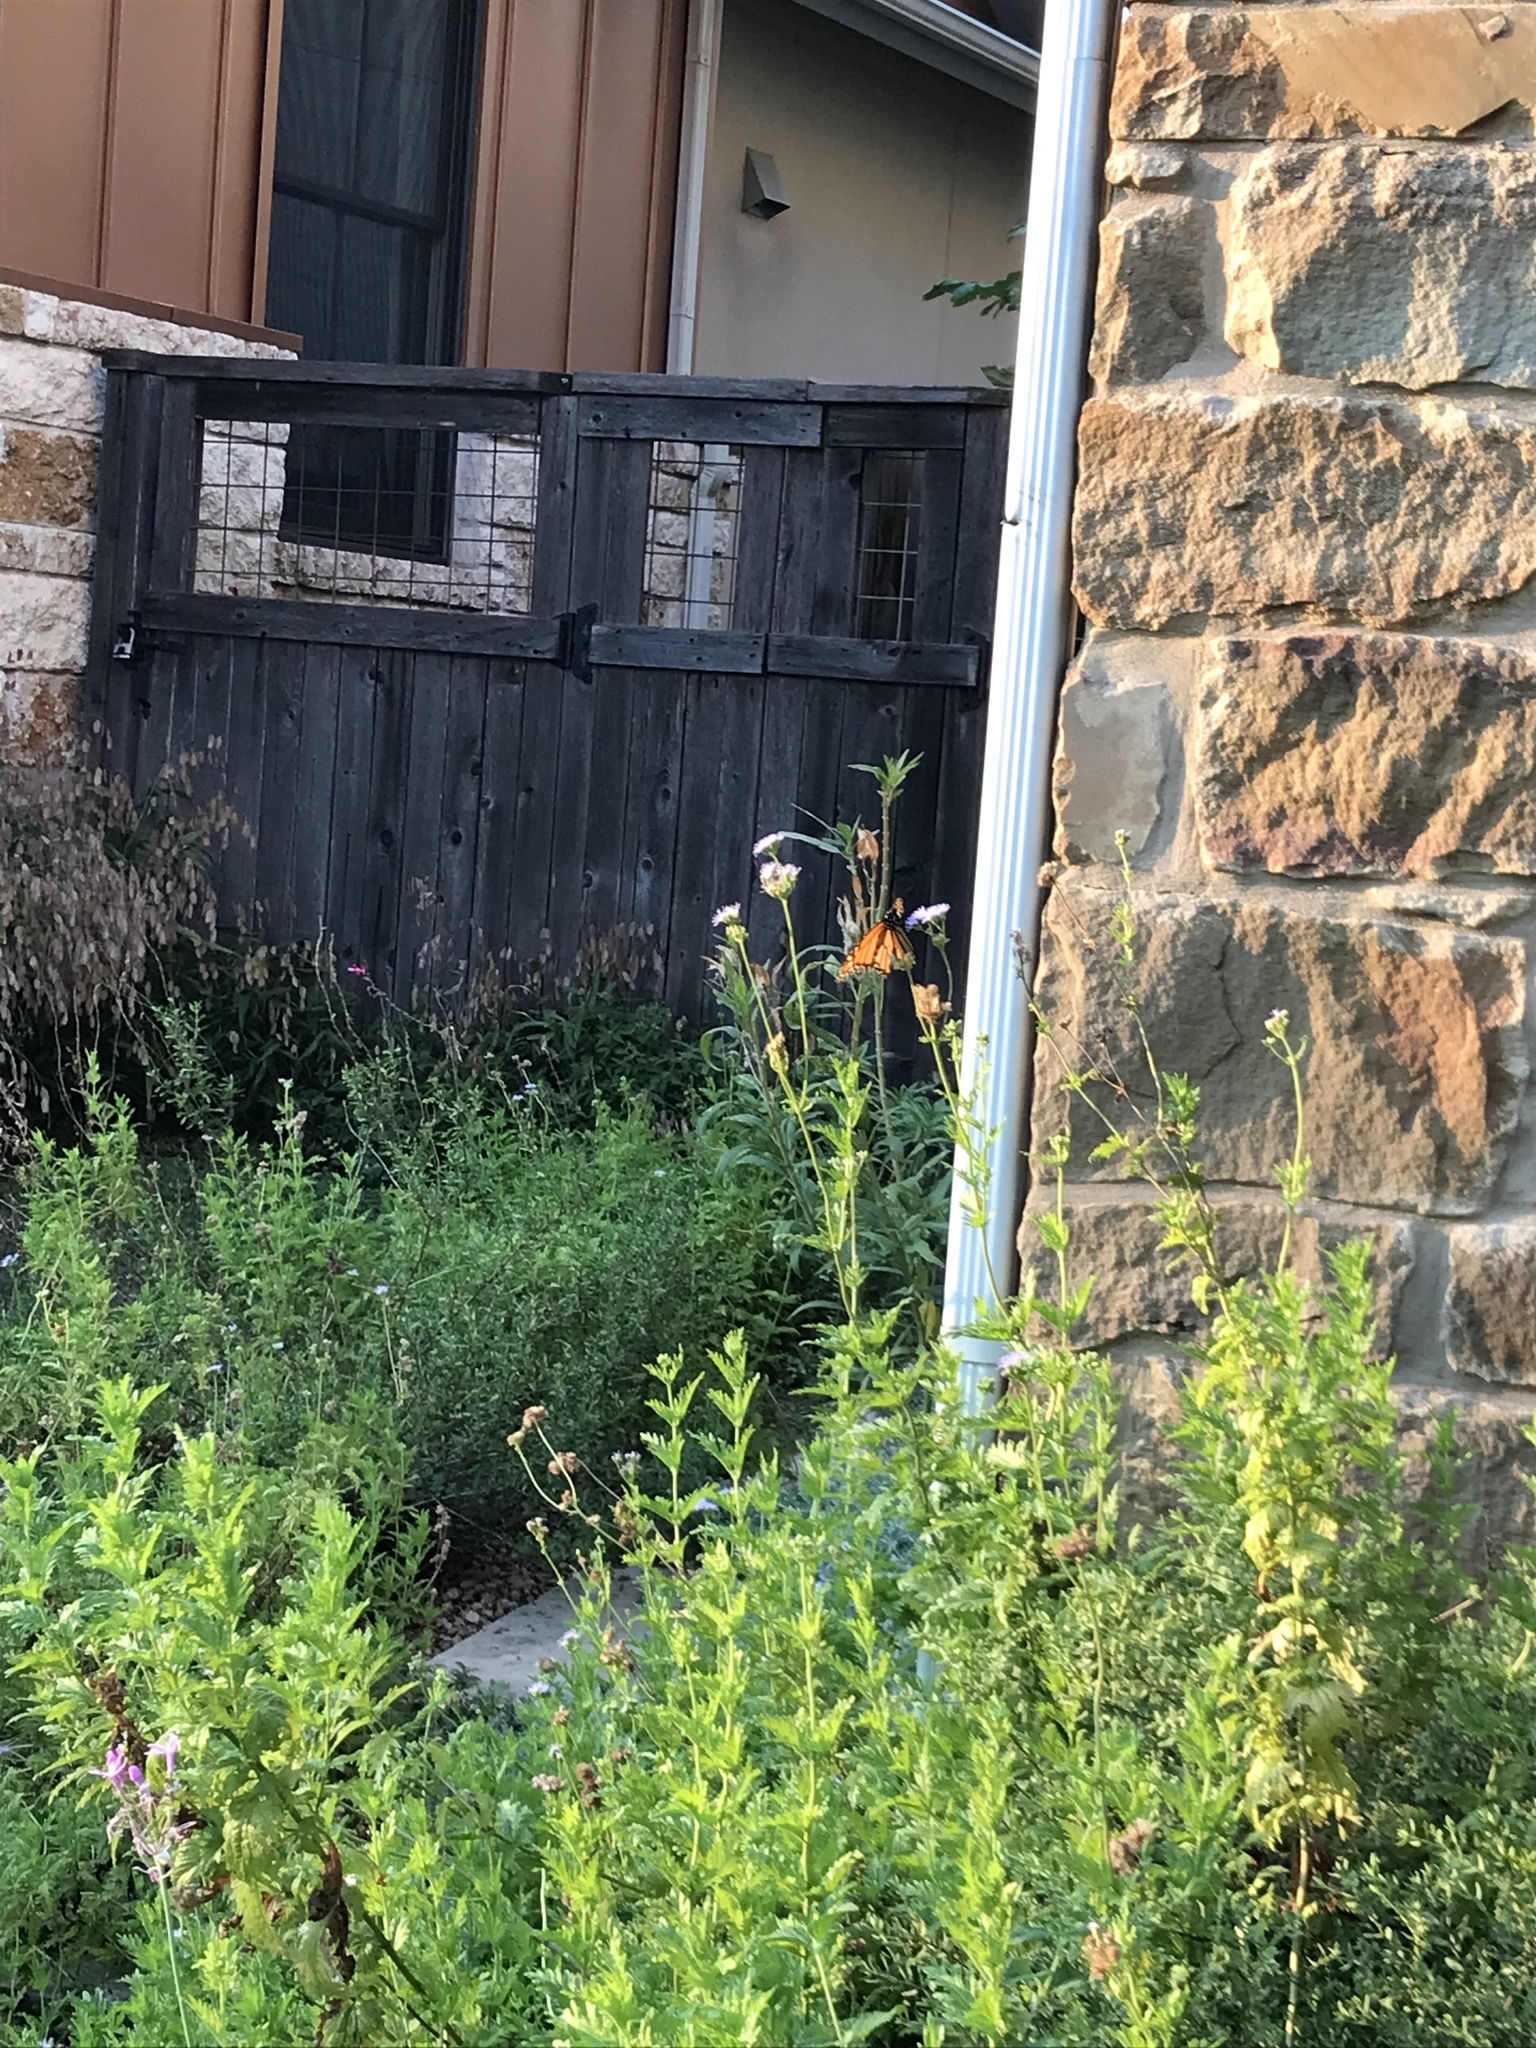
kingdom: Animalia
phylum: Arthropoda
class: Insecta
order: Lepidoptera
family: Nymphalidae
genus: Danaus
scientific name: Danaus plexippus
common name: Monarch
